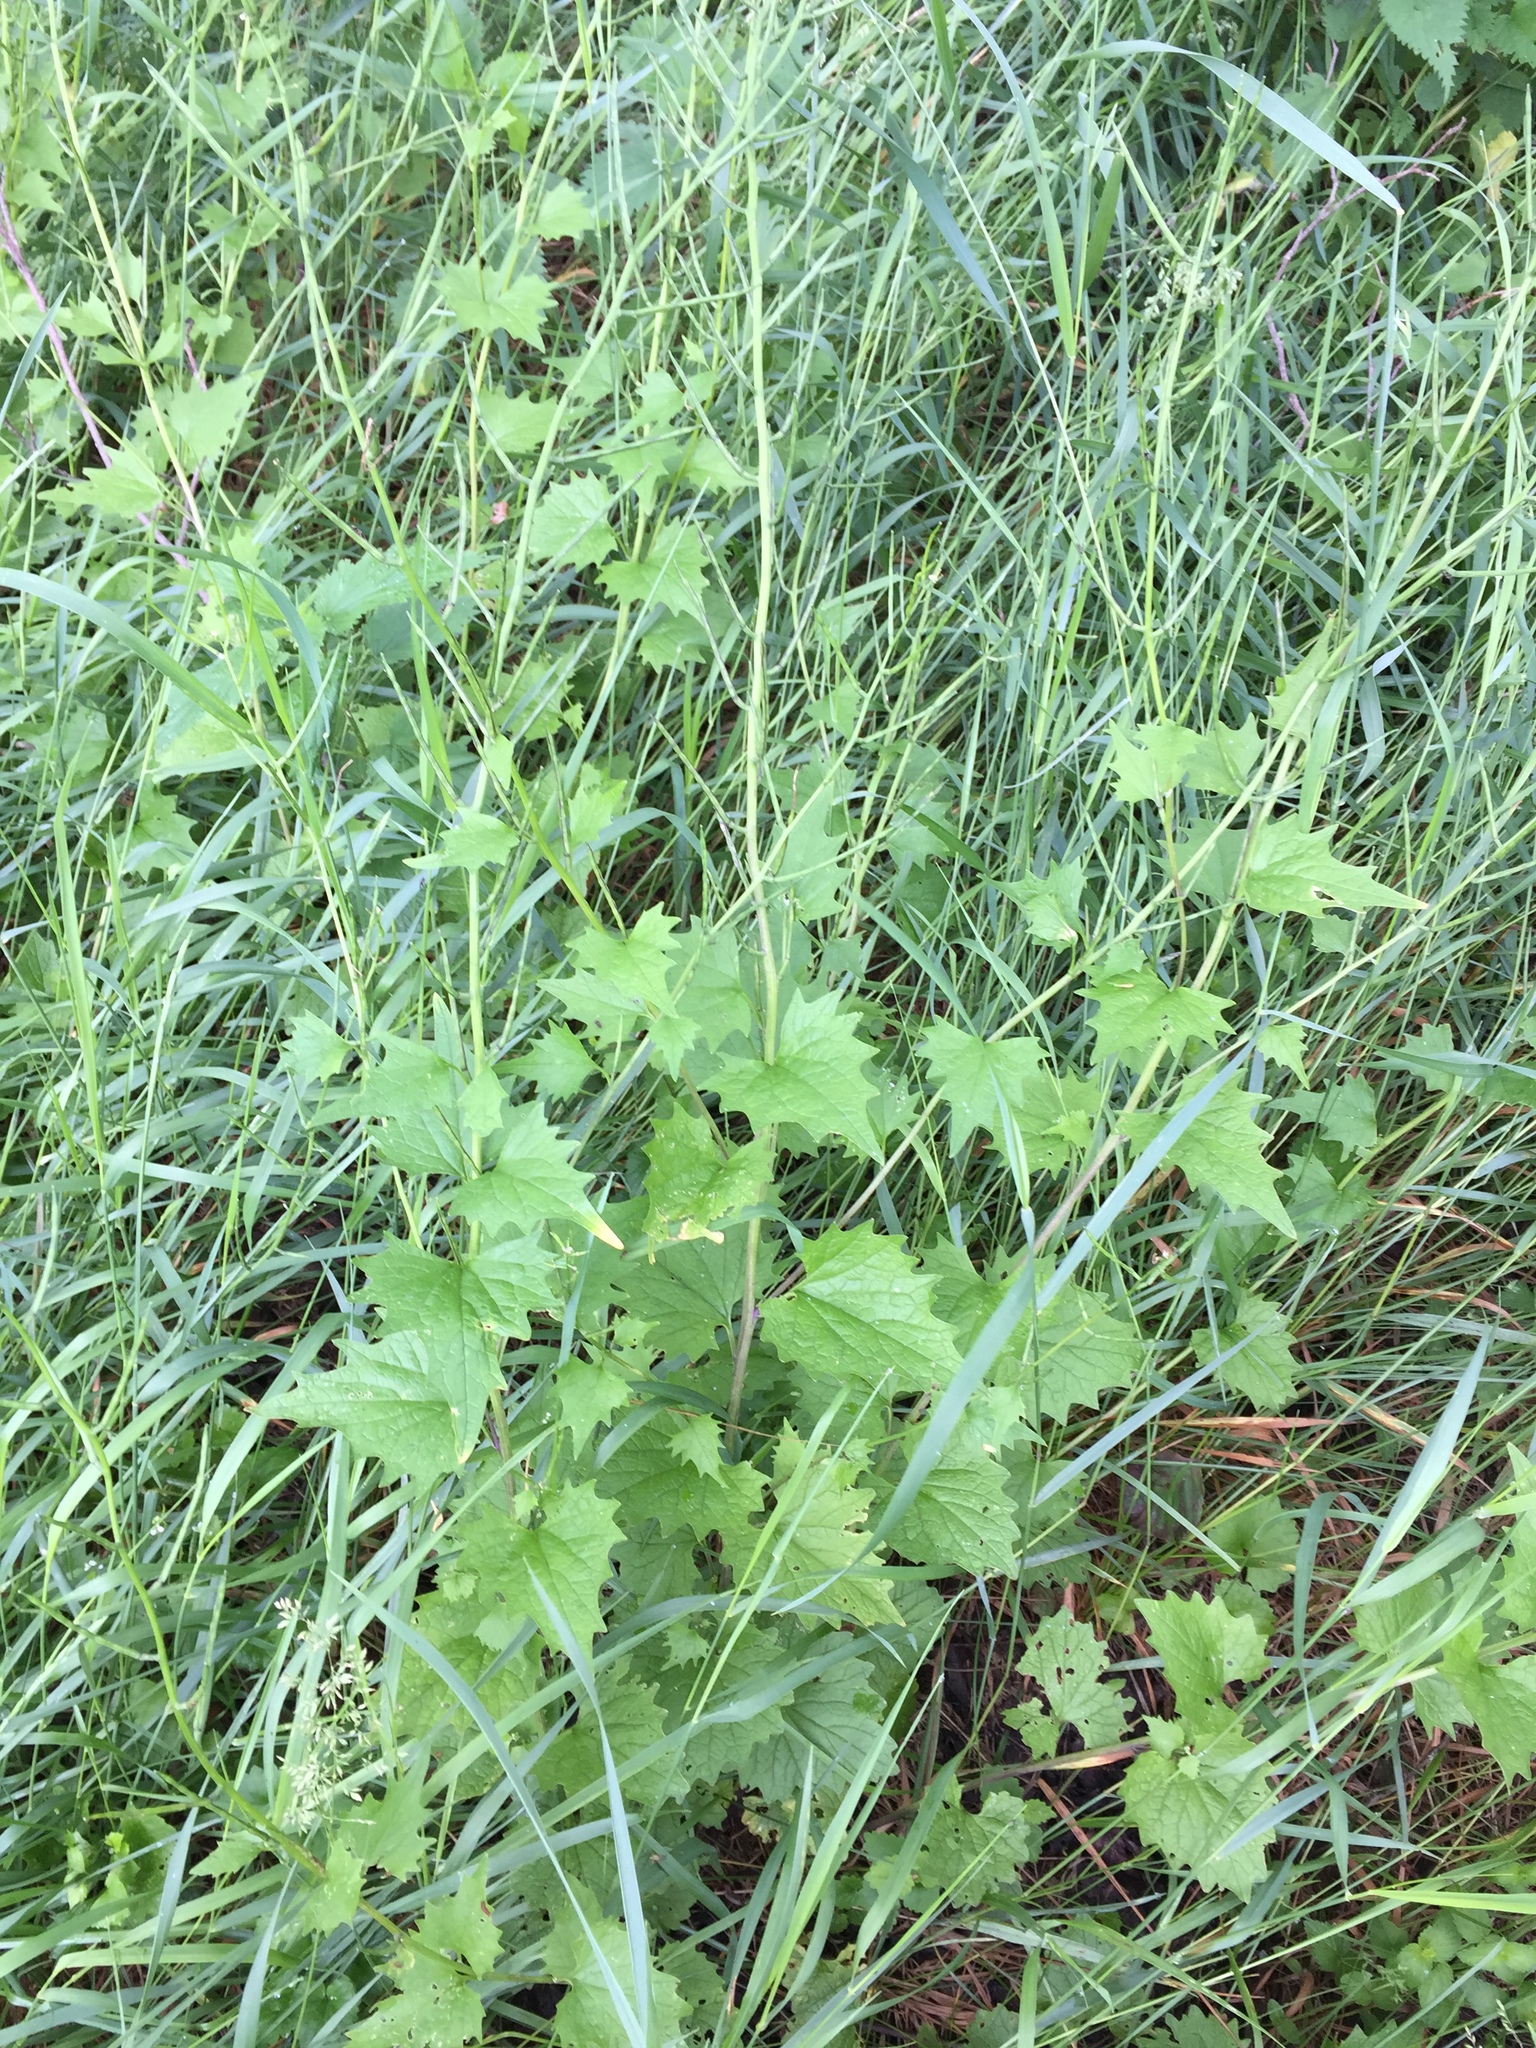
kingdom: Plantae
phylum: Tracheophyta
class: Magnoliopsida
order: Brassicales
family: Brassicaceae
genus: Alliaria
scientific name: Alliaria petiolata
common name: Garlic mustard
